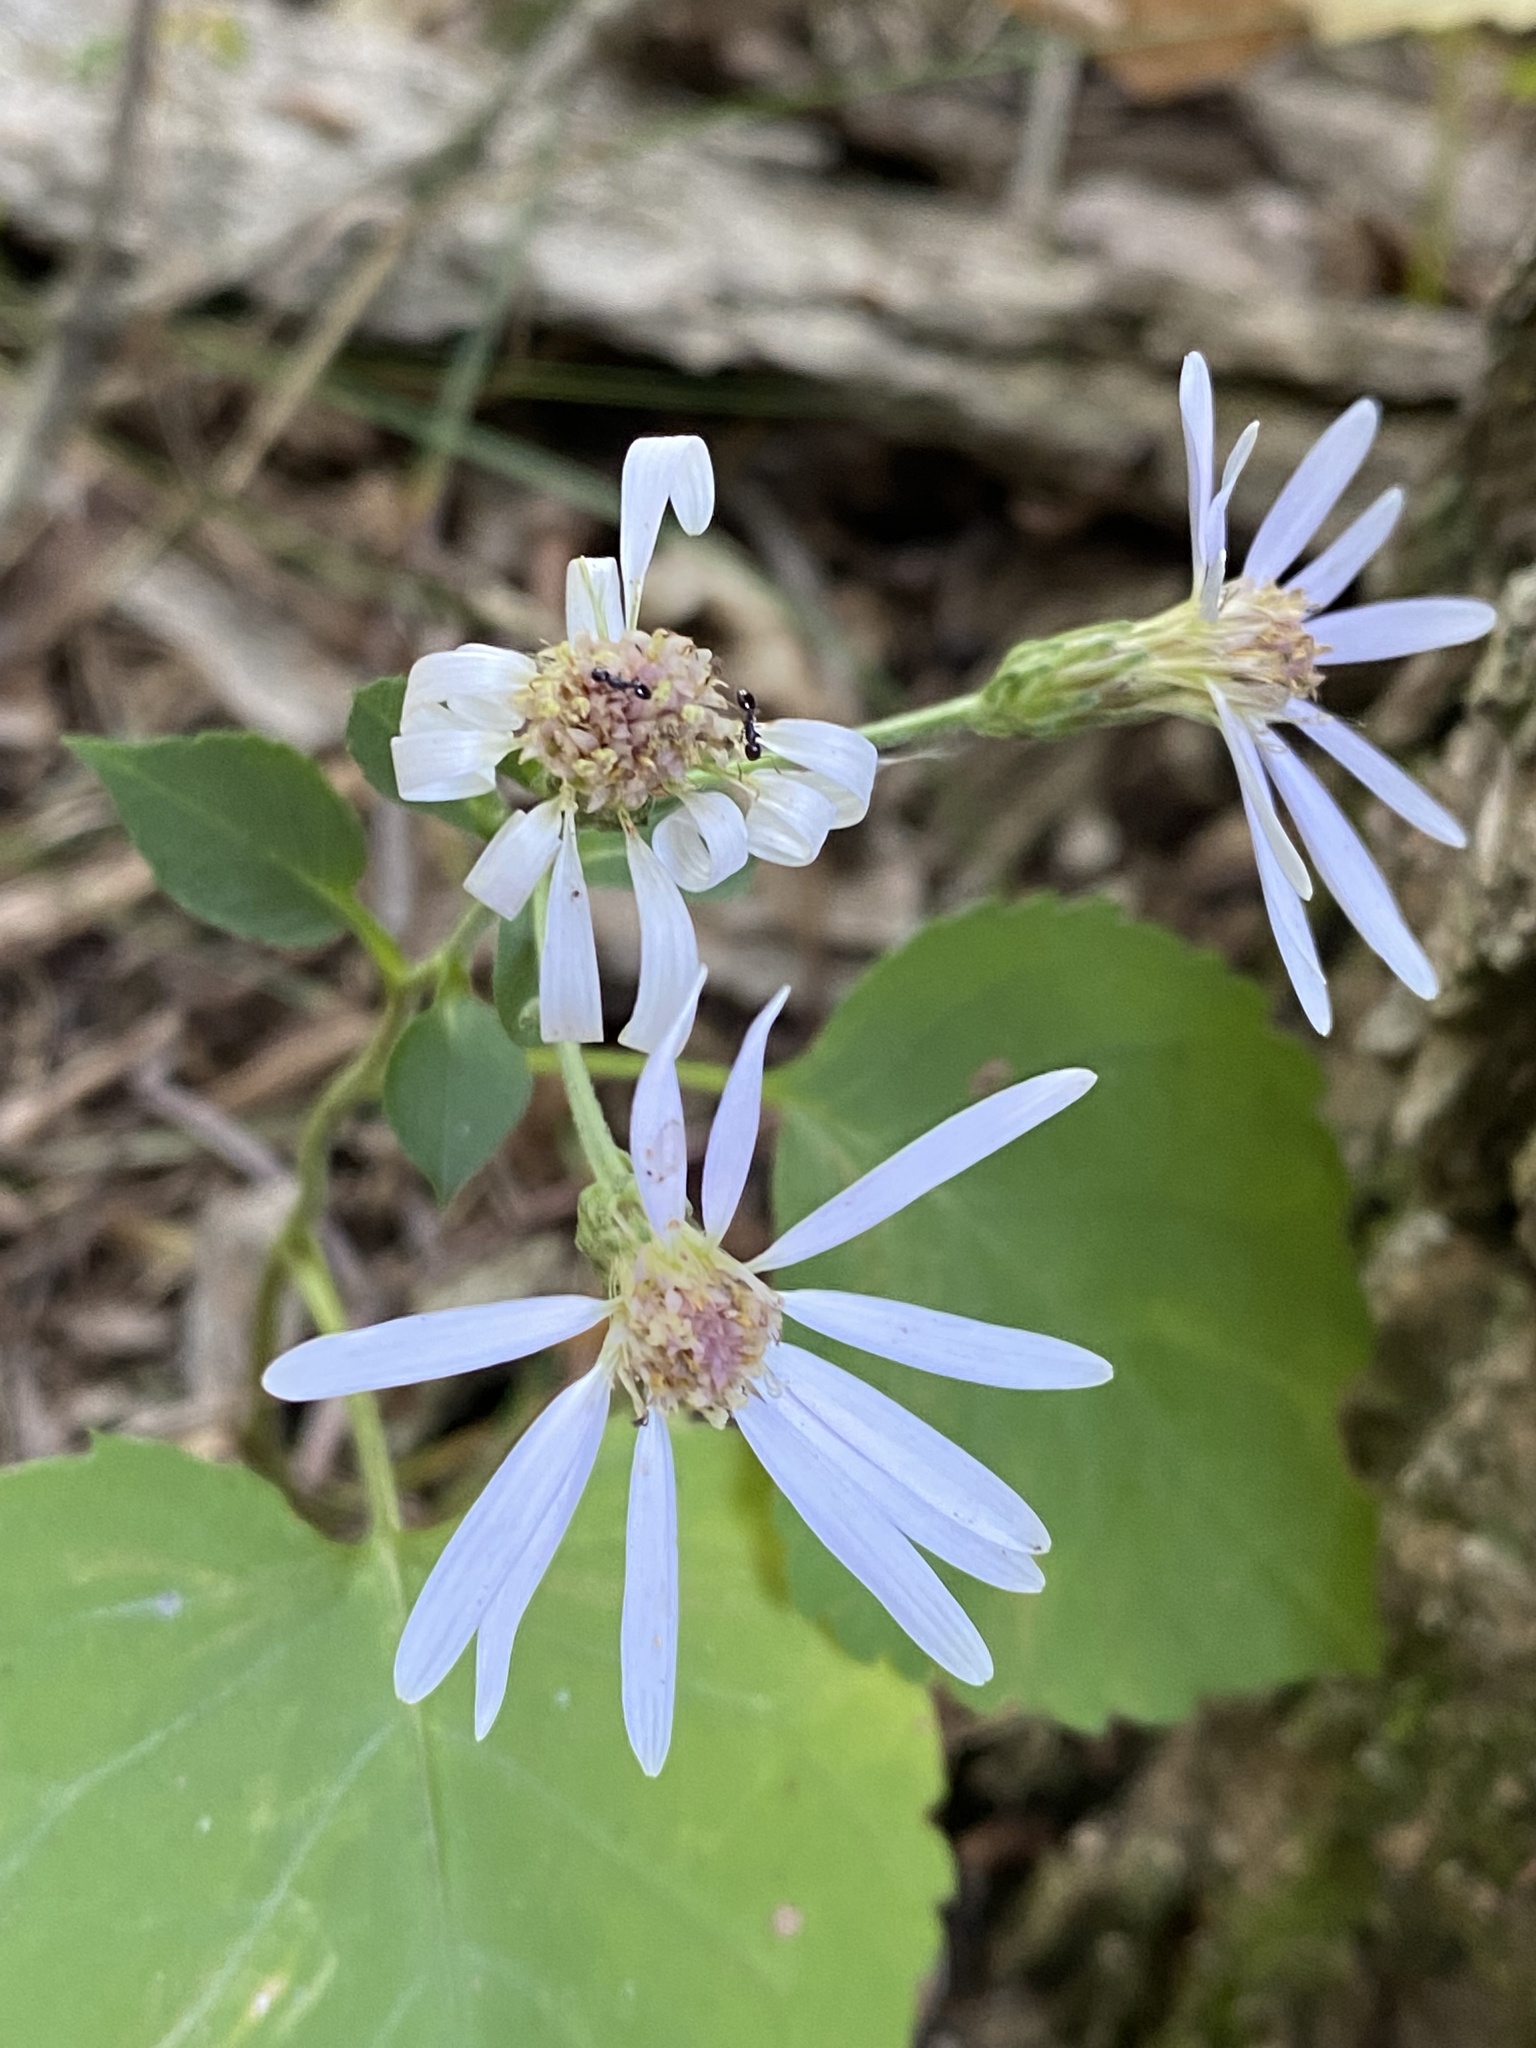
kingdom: Plantae
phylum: Tracheophyta
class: Magnoliopsida
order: Asterales
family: Asteraceae
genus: Eurybia
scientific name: Eurybia macrophylla
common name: Big-leaved aster
